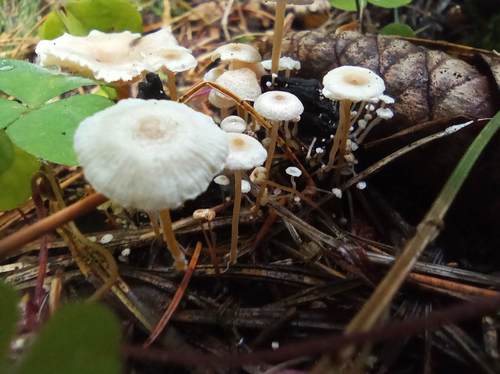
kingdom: Fungi
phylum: Basidiomycota
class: Agaricomycetes
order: Agaricales
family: Tricholomataceae
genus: Collybia
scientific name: Collybia tuberosa
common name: Lentil shanklet
